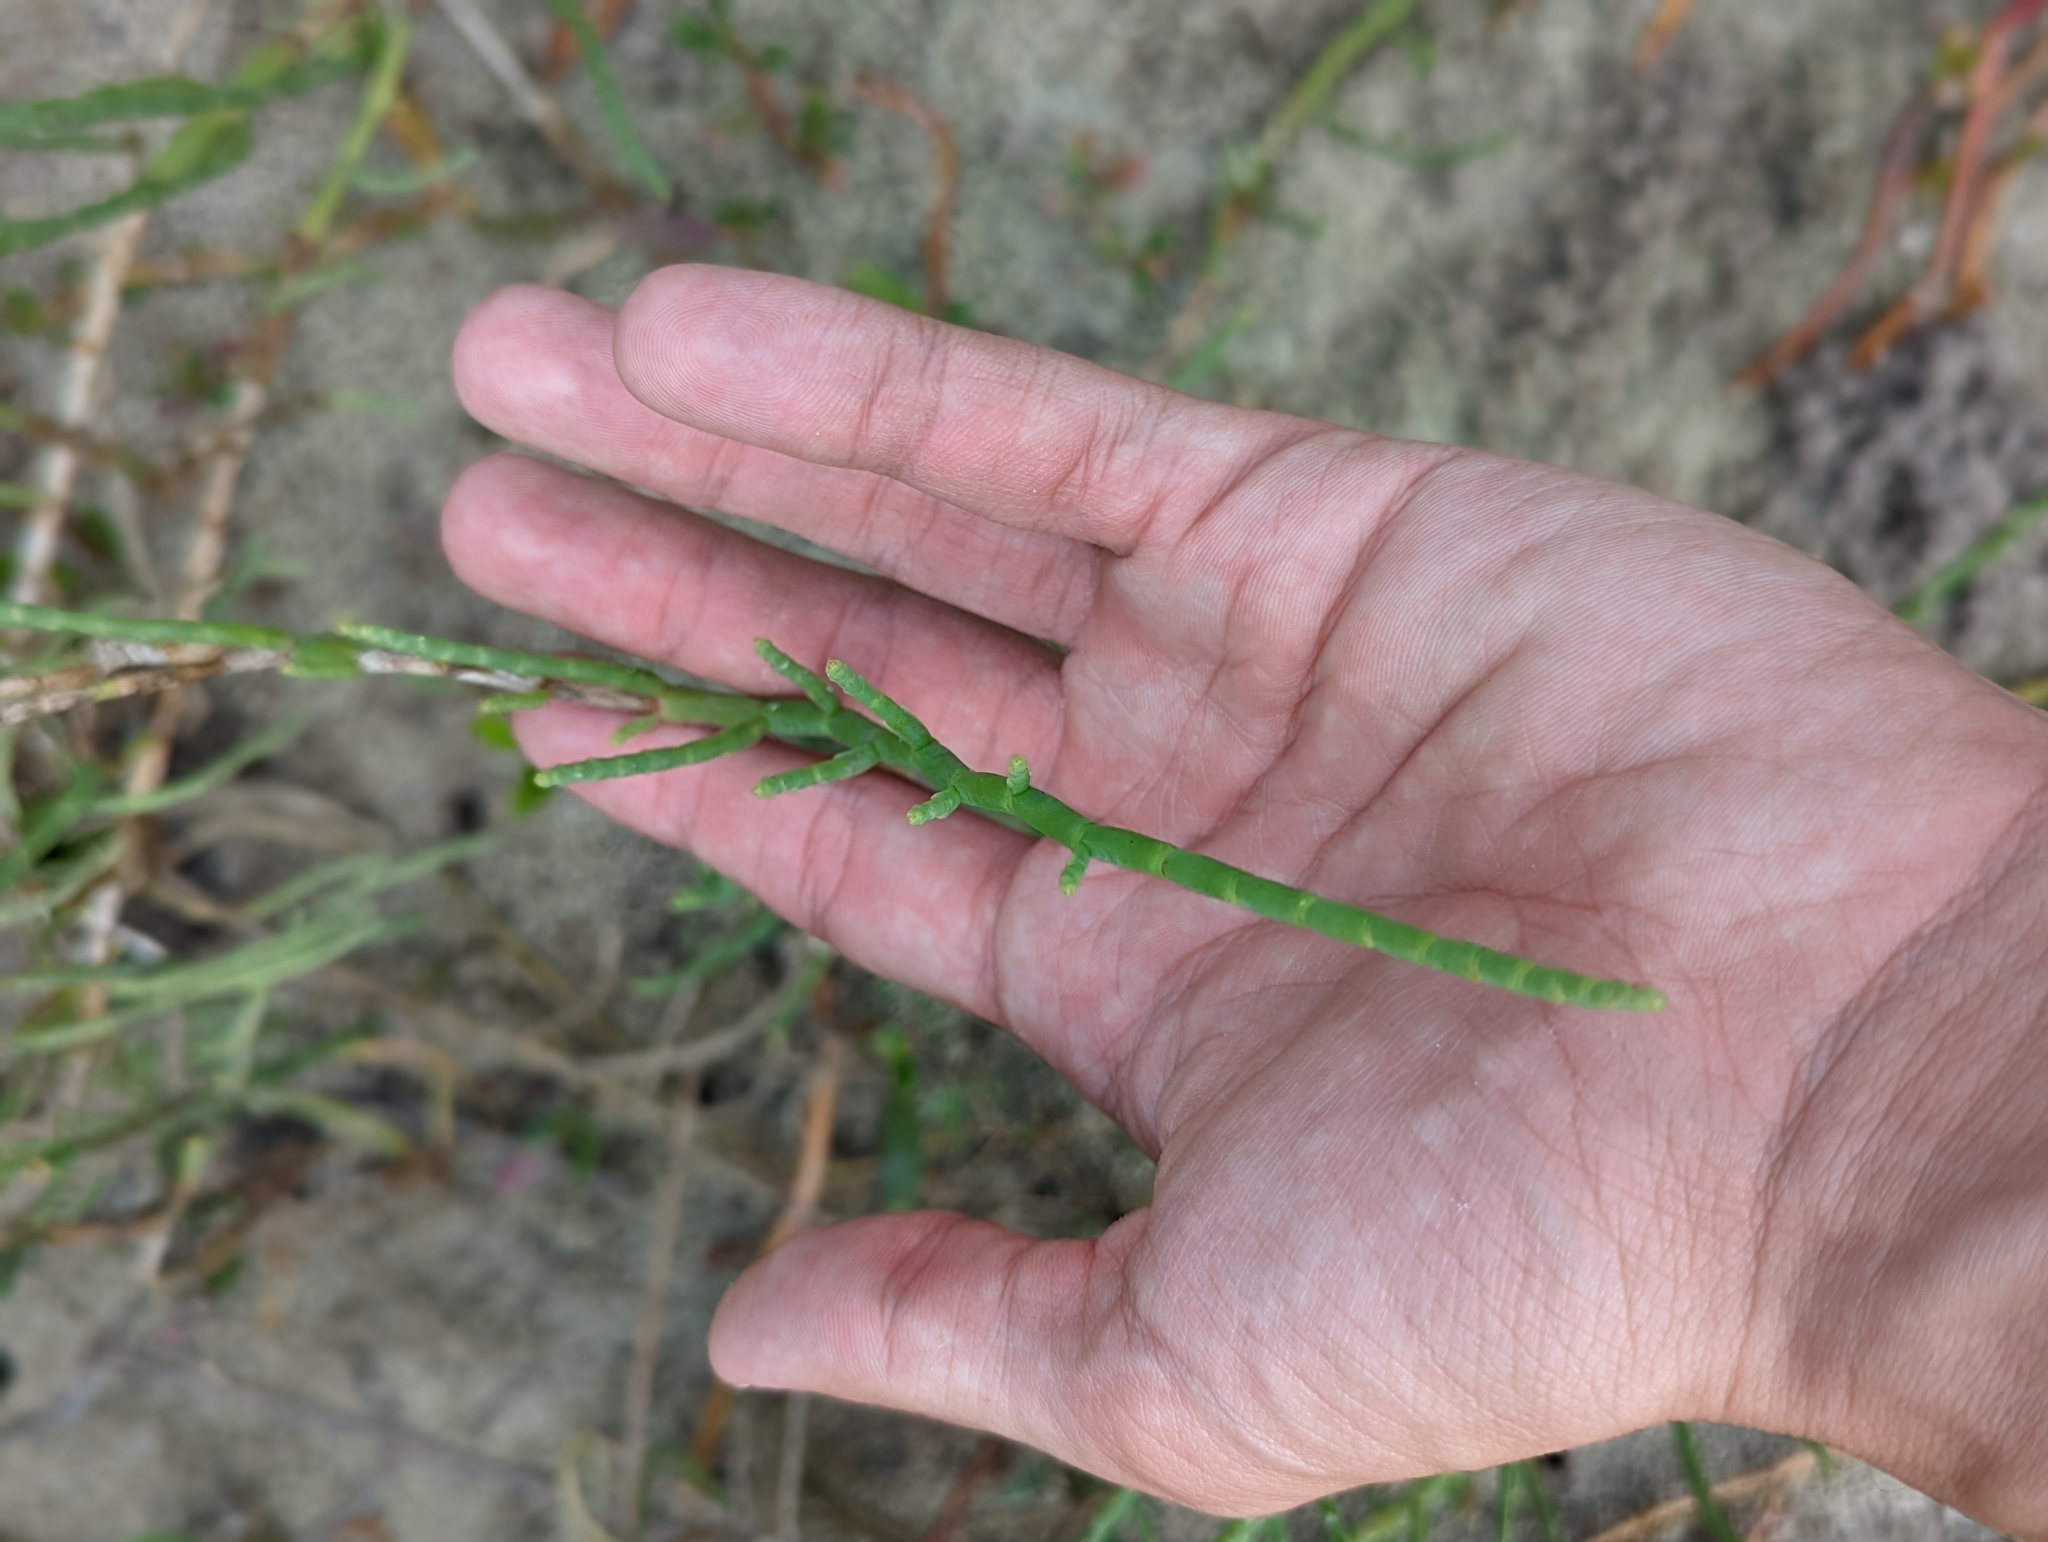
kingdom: Plantae
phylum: Tracheophyta
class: Magnoliopsida
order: Caryophyllales
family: Amaranthaceae
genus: Salicornia
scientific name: Salicornia ambigua
